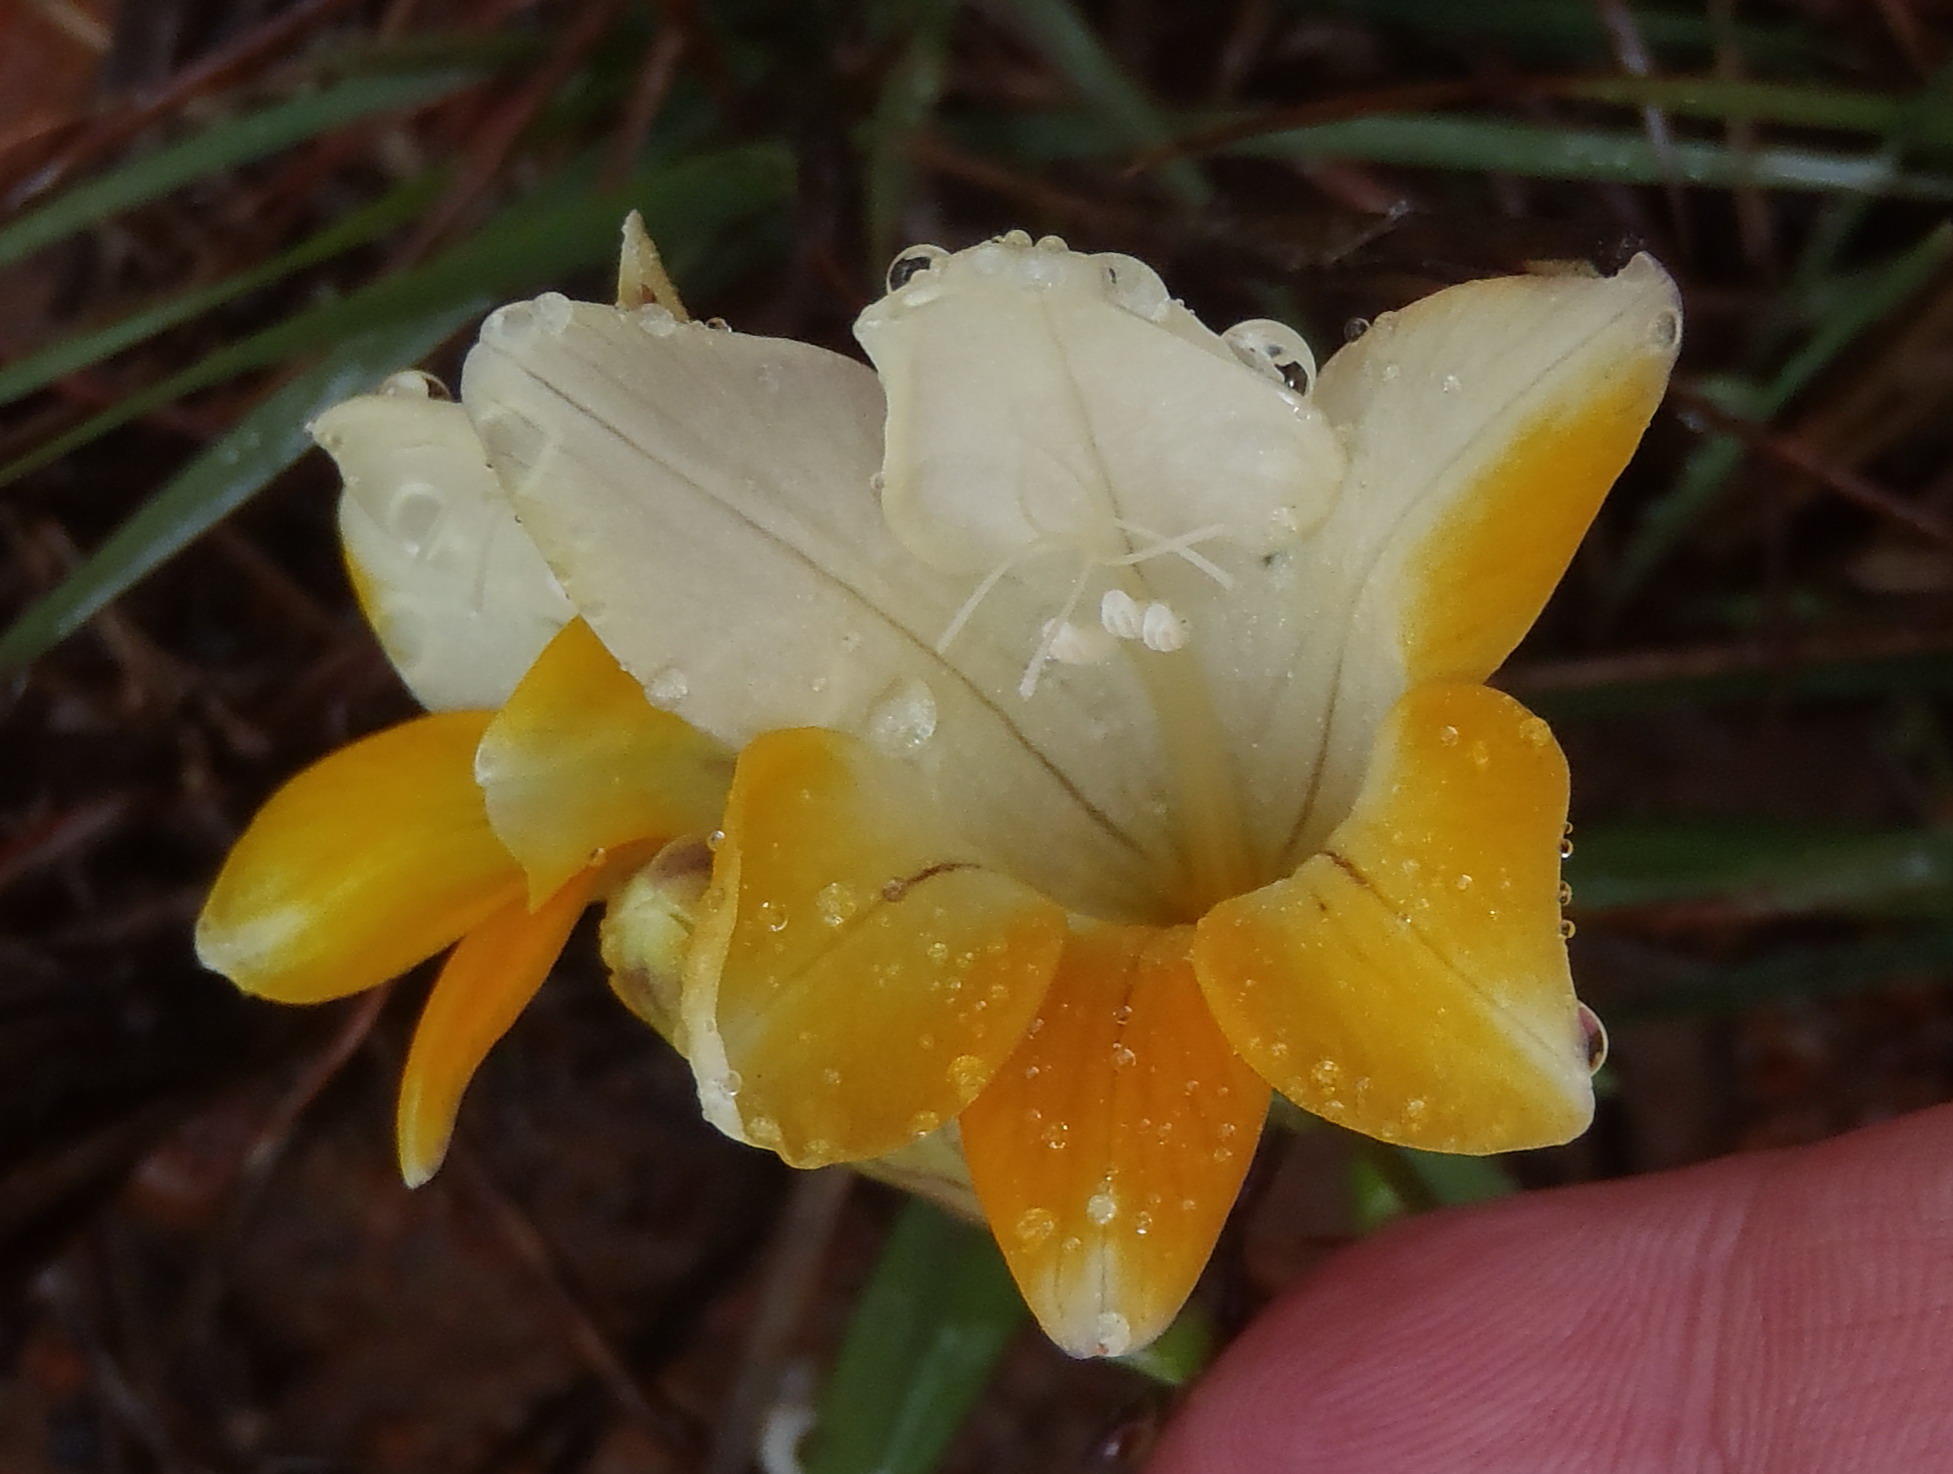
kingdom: Plantae
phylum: Tracheophyta
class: Liliopsida
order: Asparagales
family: Iridaceae
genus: Freesia
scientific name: Freesia corymbosa
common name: Common freesia
